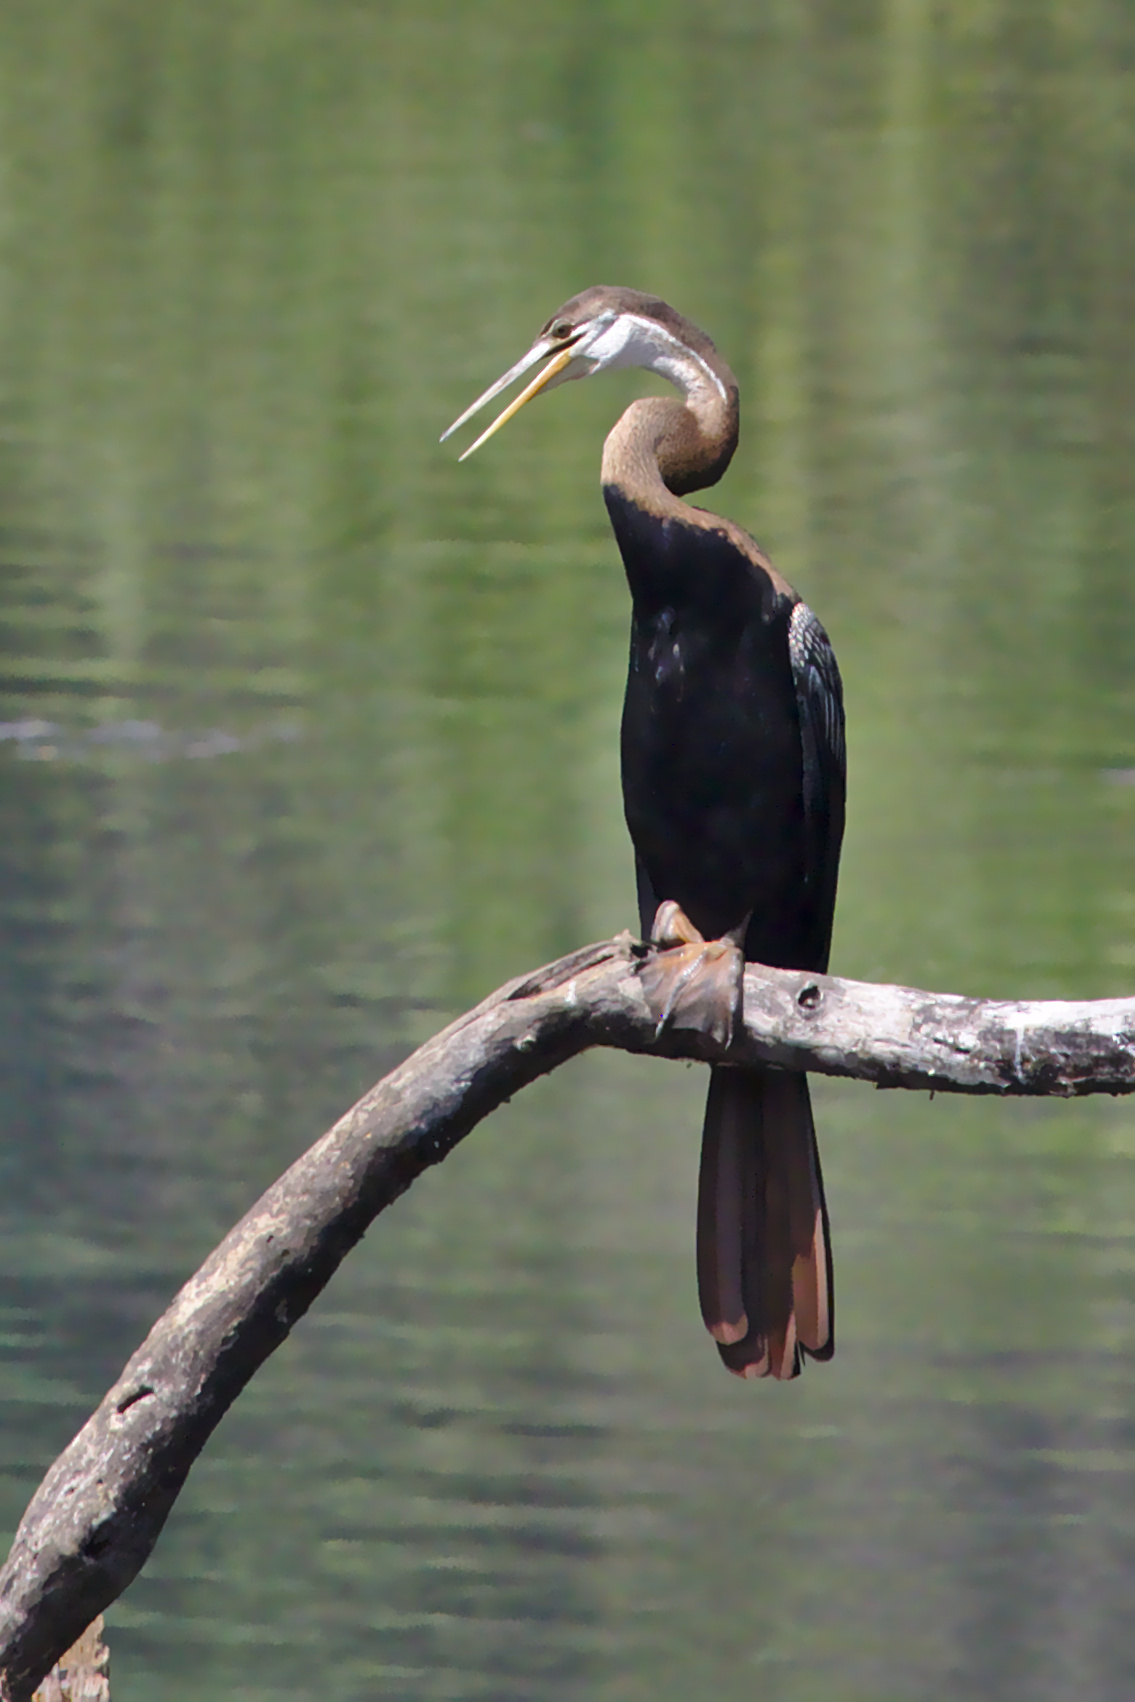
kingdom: Animalia
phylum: Chordata
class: Aves
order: Suliformes
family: Anhingidae
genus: Anhinga
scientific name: Anhinga melanogaster
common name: Oriental darter
